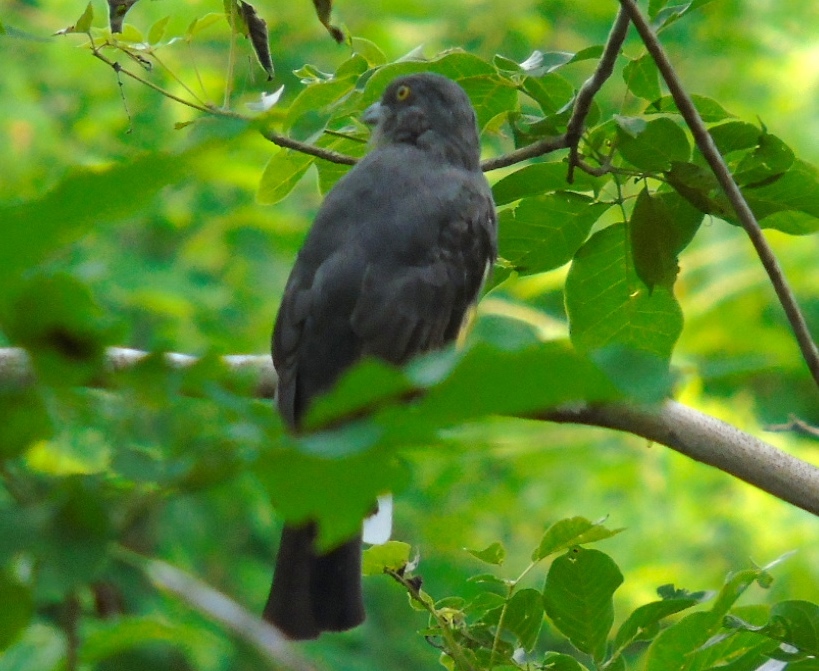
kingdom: Animalia
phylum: Chordata
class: Aves
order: Trogoniformes
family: Trogonidae
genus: Trogon
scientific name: Trogon citreolus
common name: Citreoline trogon
